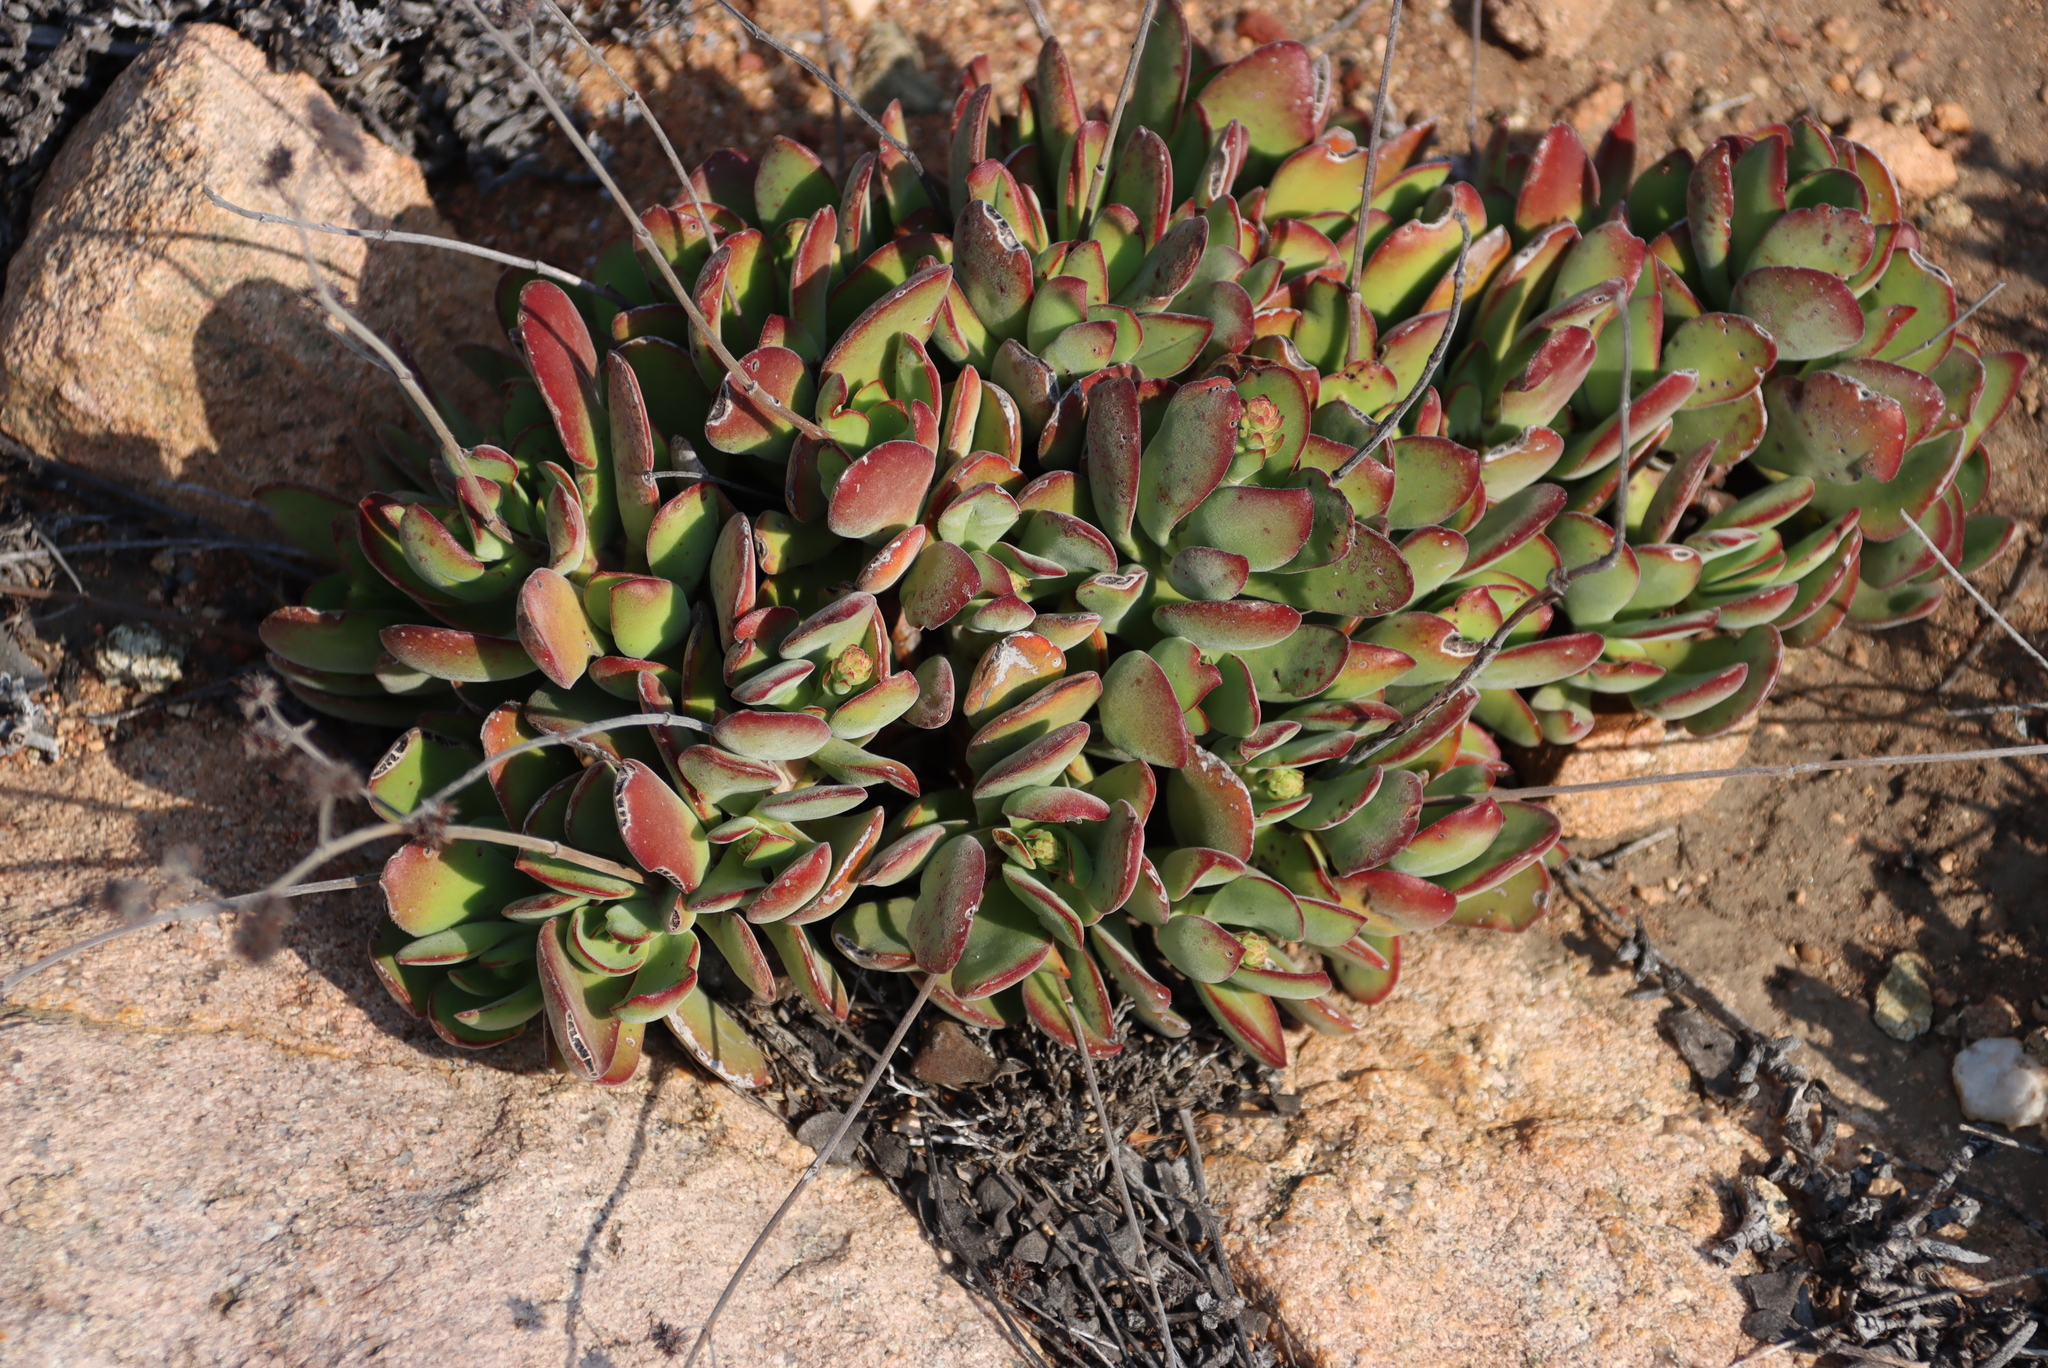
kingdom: Plantae
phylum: Tracheophyta
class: Magnoliopsida
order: Saxifragales
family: Crassulaceae
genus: Crassula
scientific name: Crassula atropurpurea
